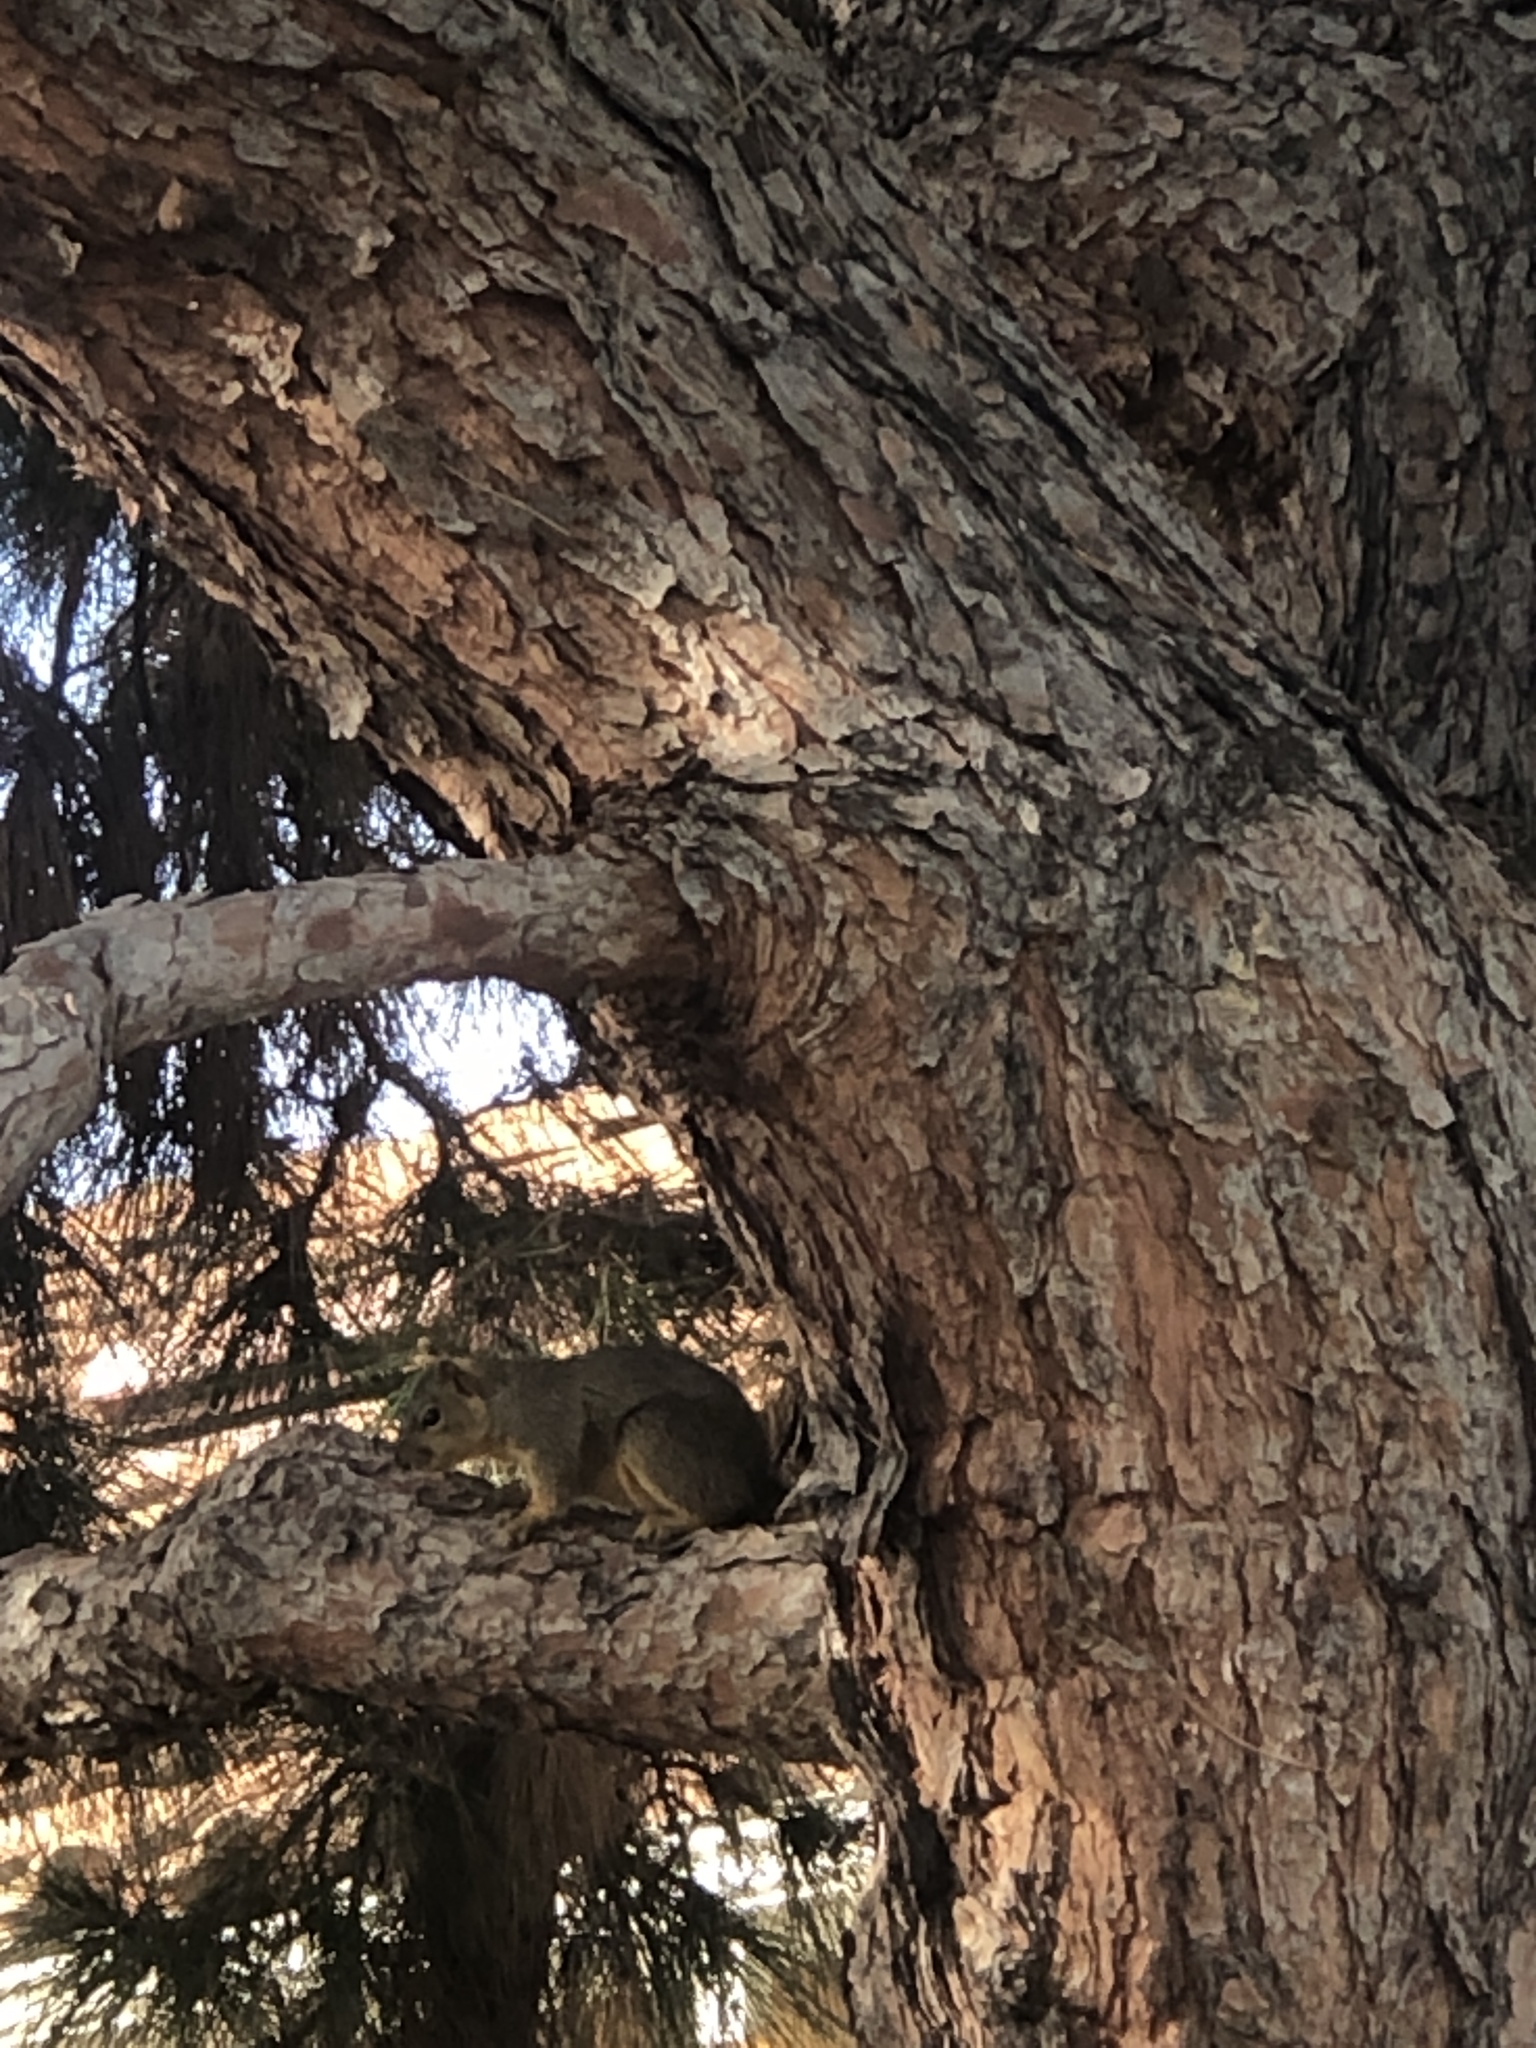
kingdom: Animalia
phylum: Chordata
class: Mammalia
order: Rodentia
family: Sciuridae
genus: Sciurus
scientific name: Sciurus niger
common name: Fox squirrel
